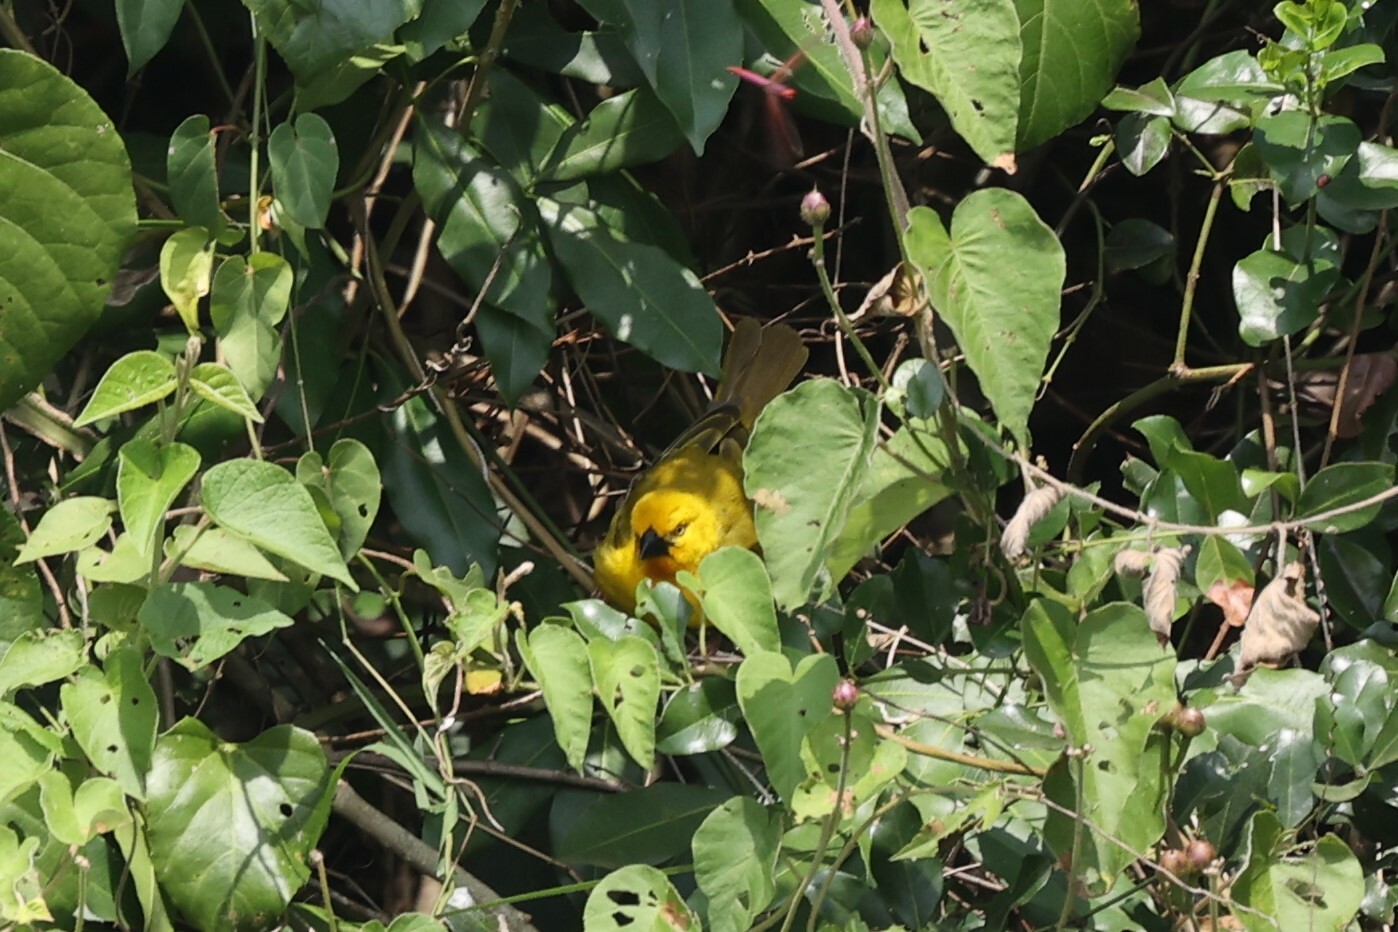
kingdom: Animalia
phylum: Chordata
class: Aves
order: Passeriformes
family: Ploceidae
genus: Ploceus
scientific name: Ploceus xanthops
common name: Holub's golden weaver
